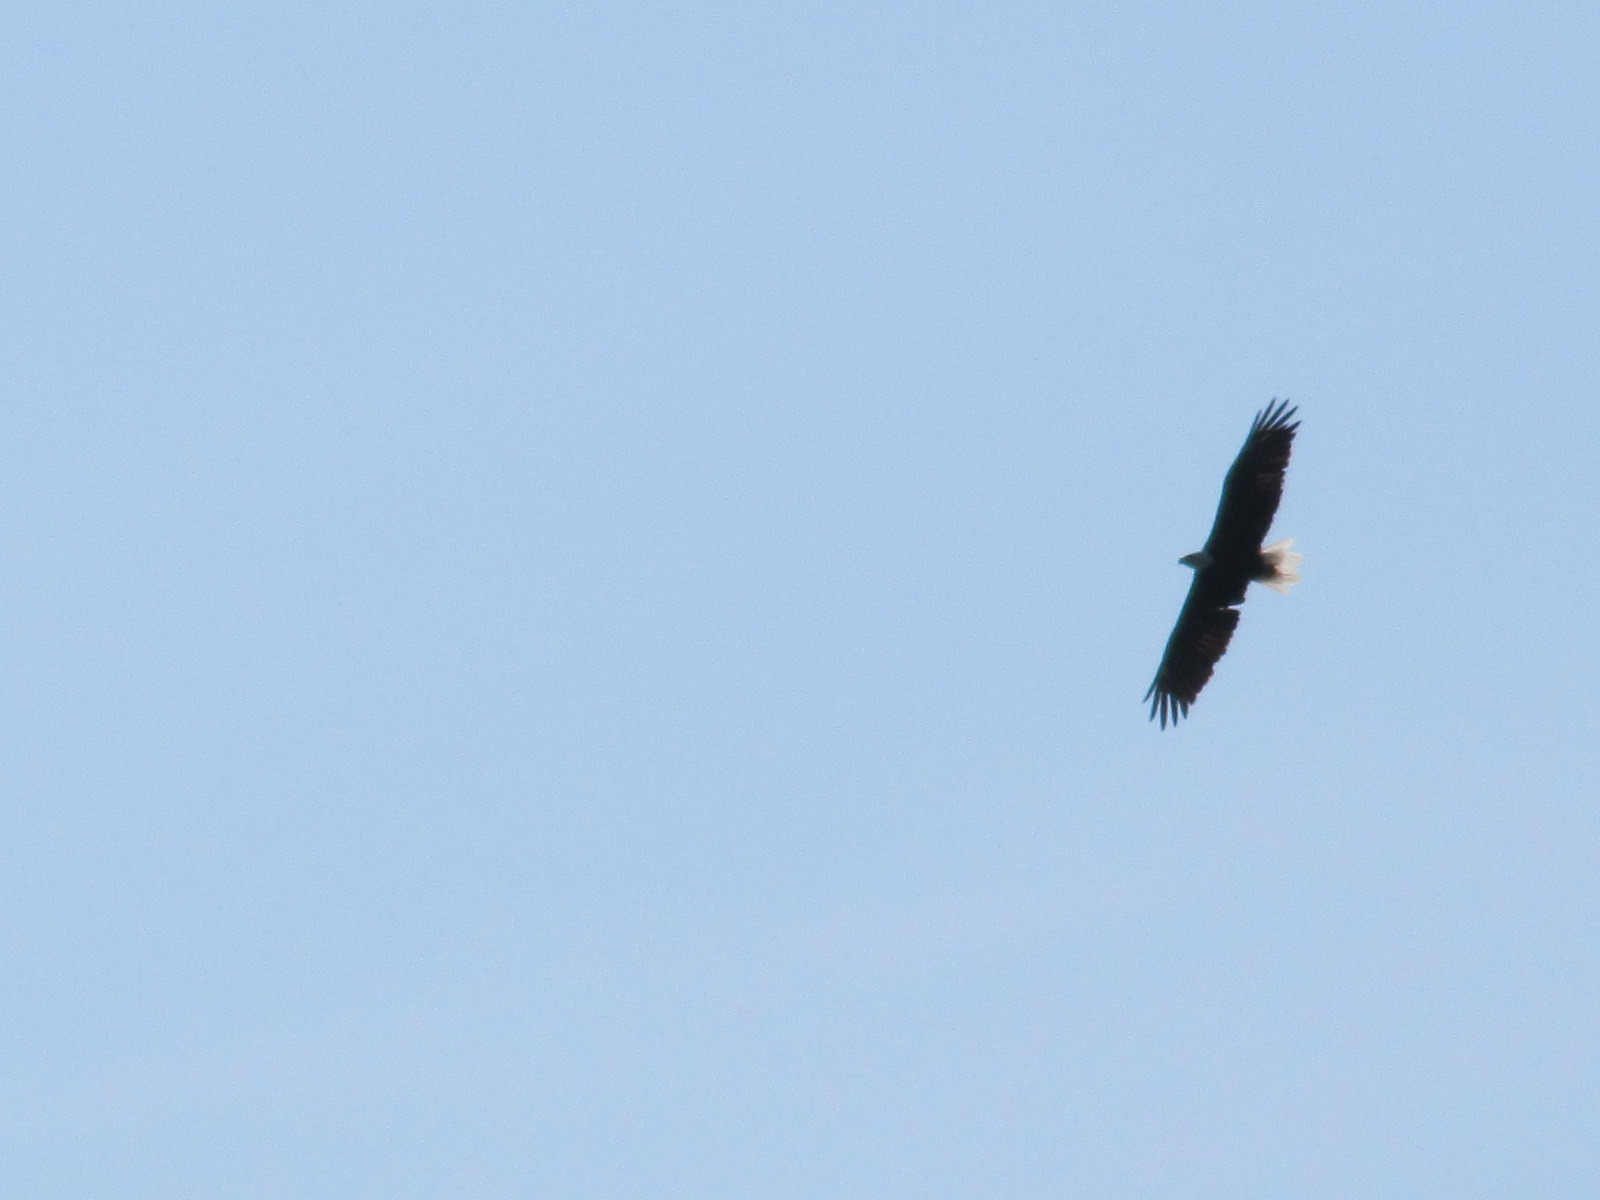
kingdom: Animalia
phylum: Chordata
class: Aves
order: Accipitriformes
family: Accipitridae
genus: Haliaeetus
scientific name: Haliaeetus leucocephalus
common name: Bald eagle
